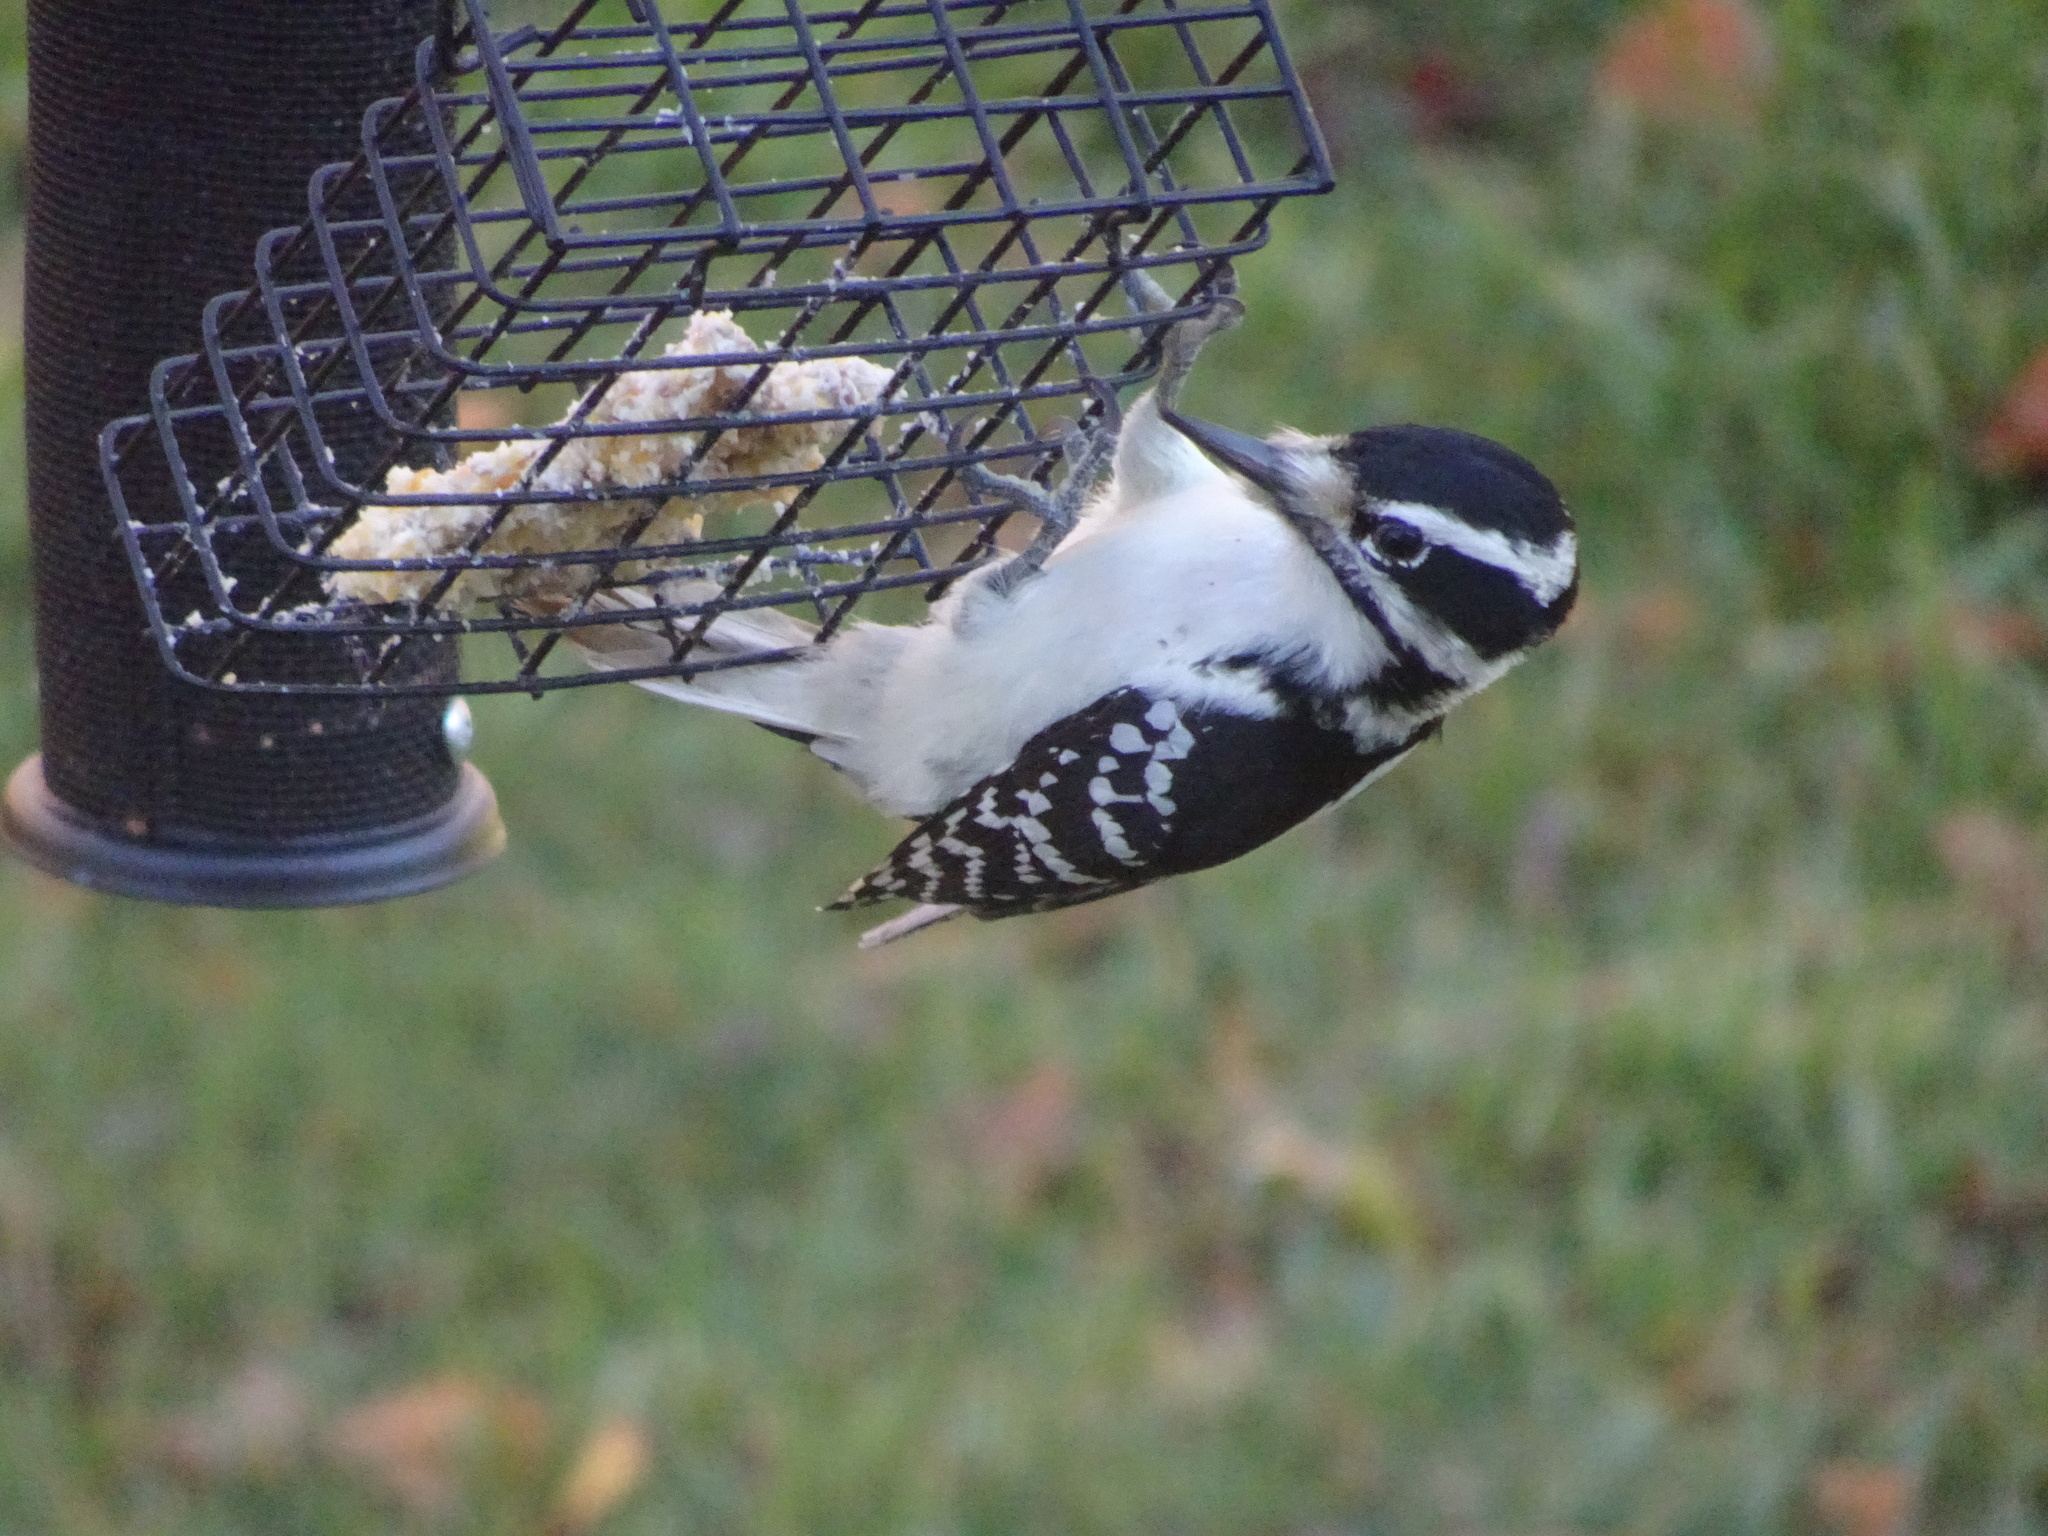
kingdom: Animalia
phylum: Chordata
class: Aves
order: Piciformes
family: Picidae
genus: Leuconotopicus
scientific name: Leuconotopicus villosus
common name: Hairy woodpecker
